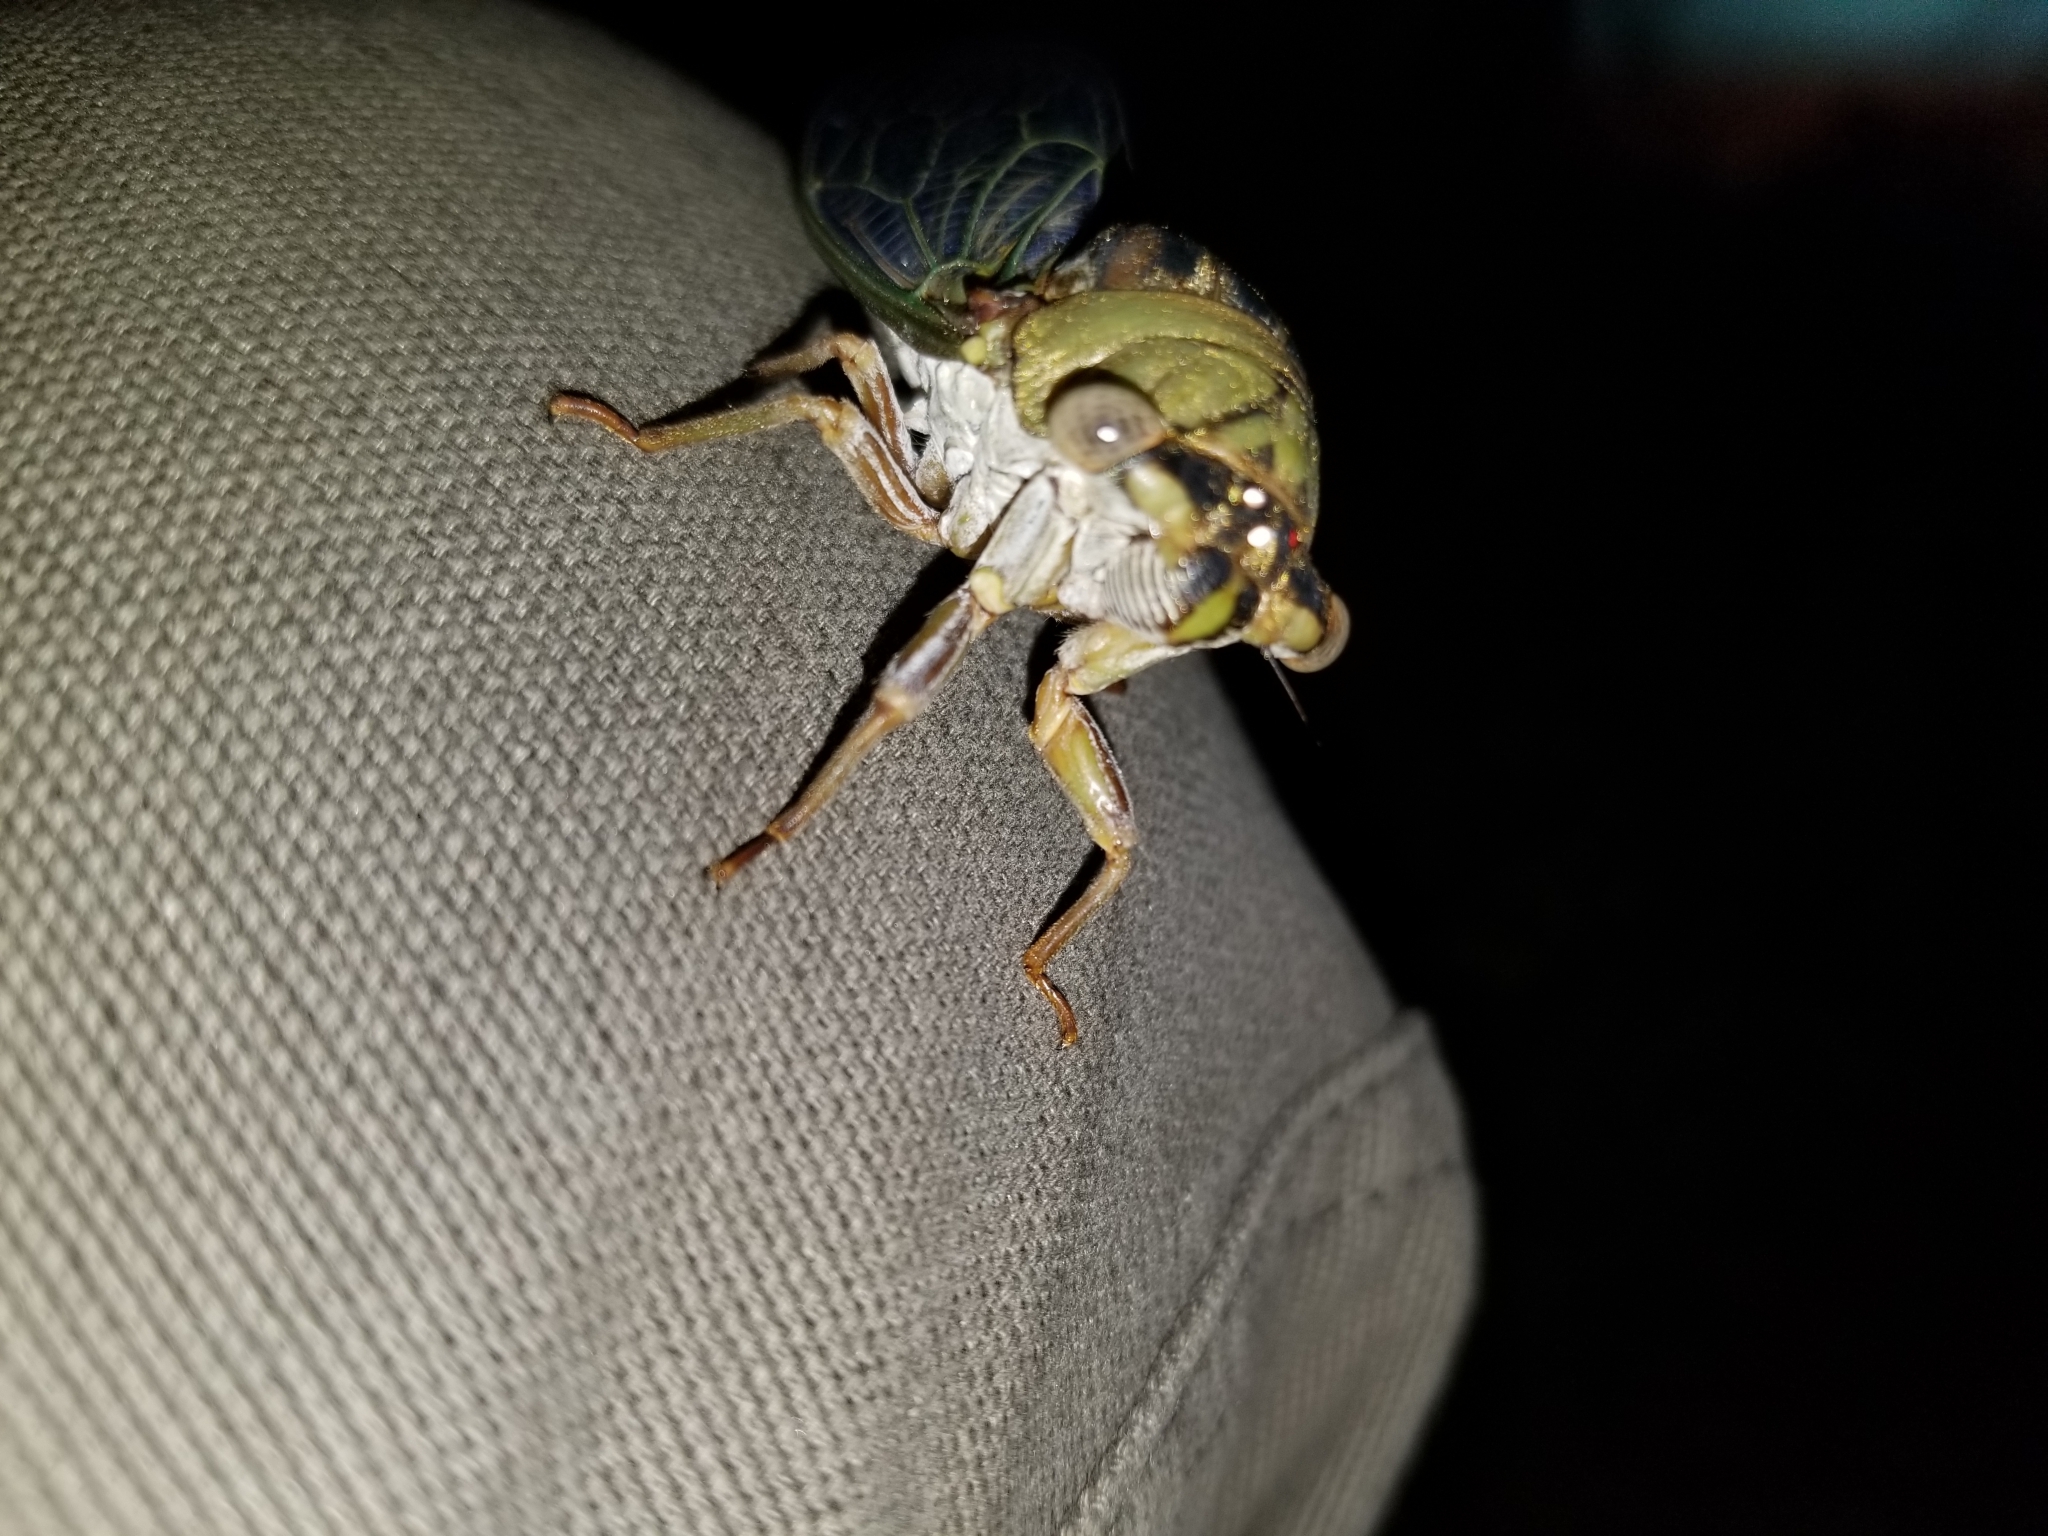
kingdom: Animalia
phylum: Arthropoda
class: Insecta
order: Hemiptera
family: Cicadidae
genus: Megatibicen
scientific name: Megatibicen resh
